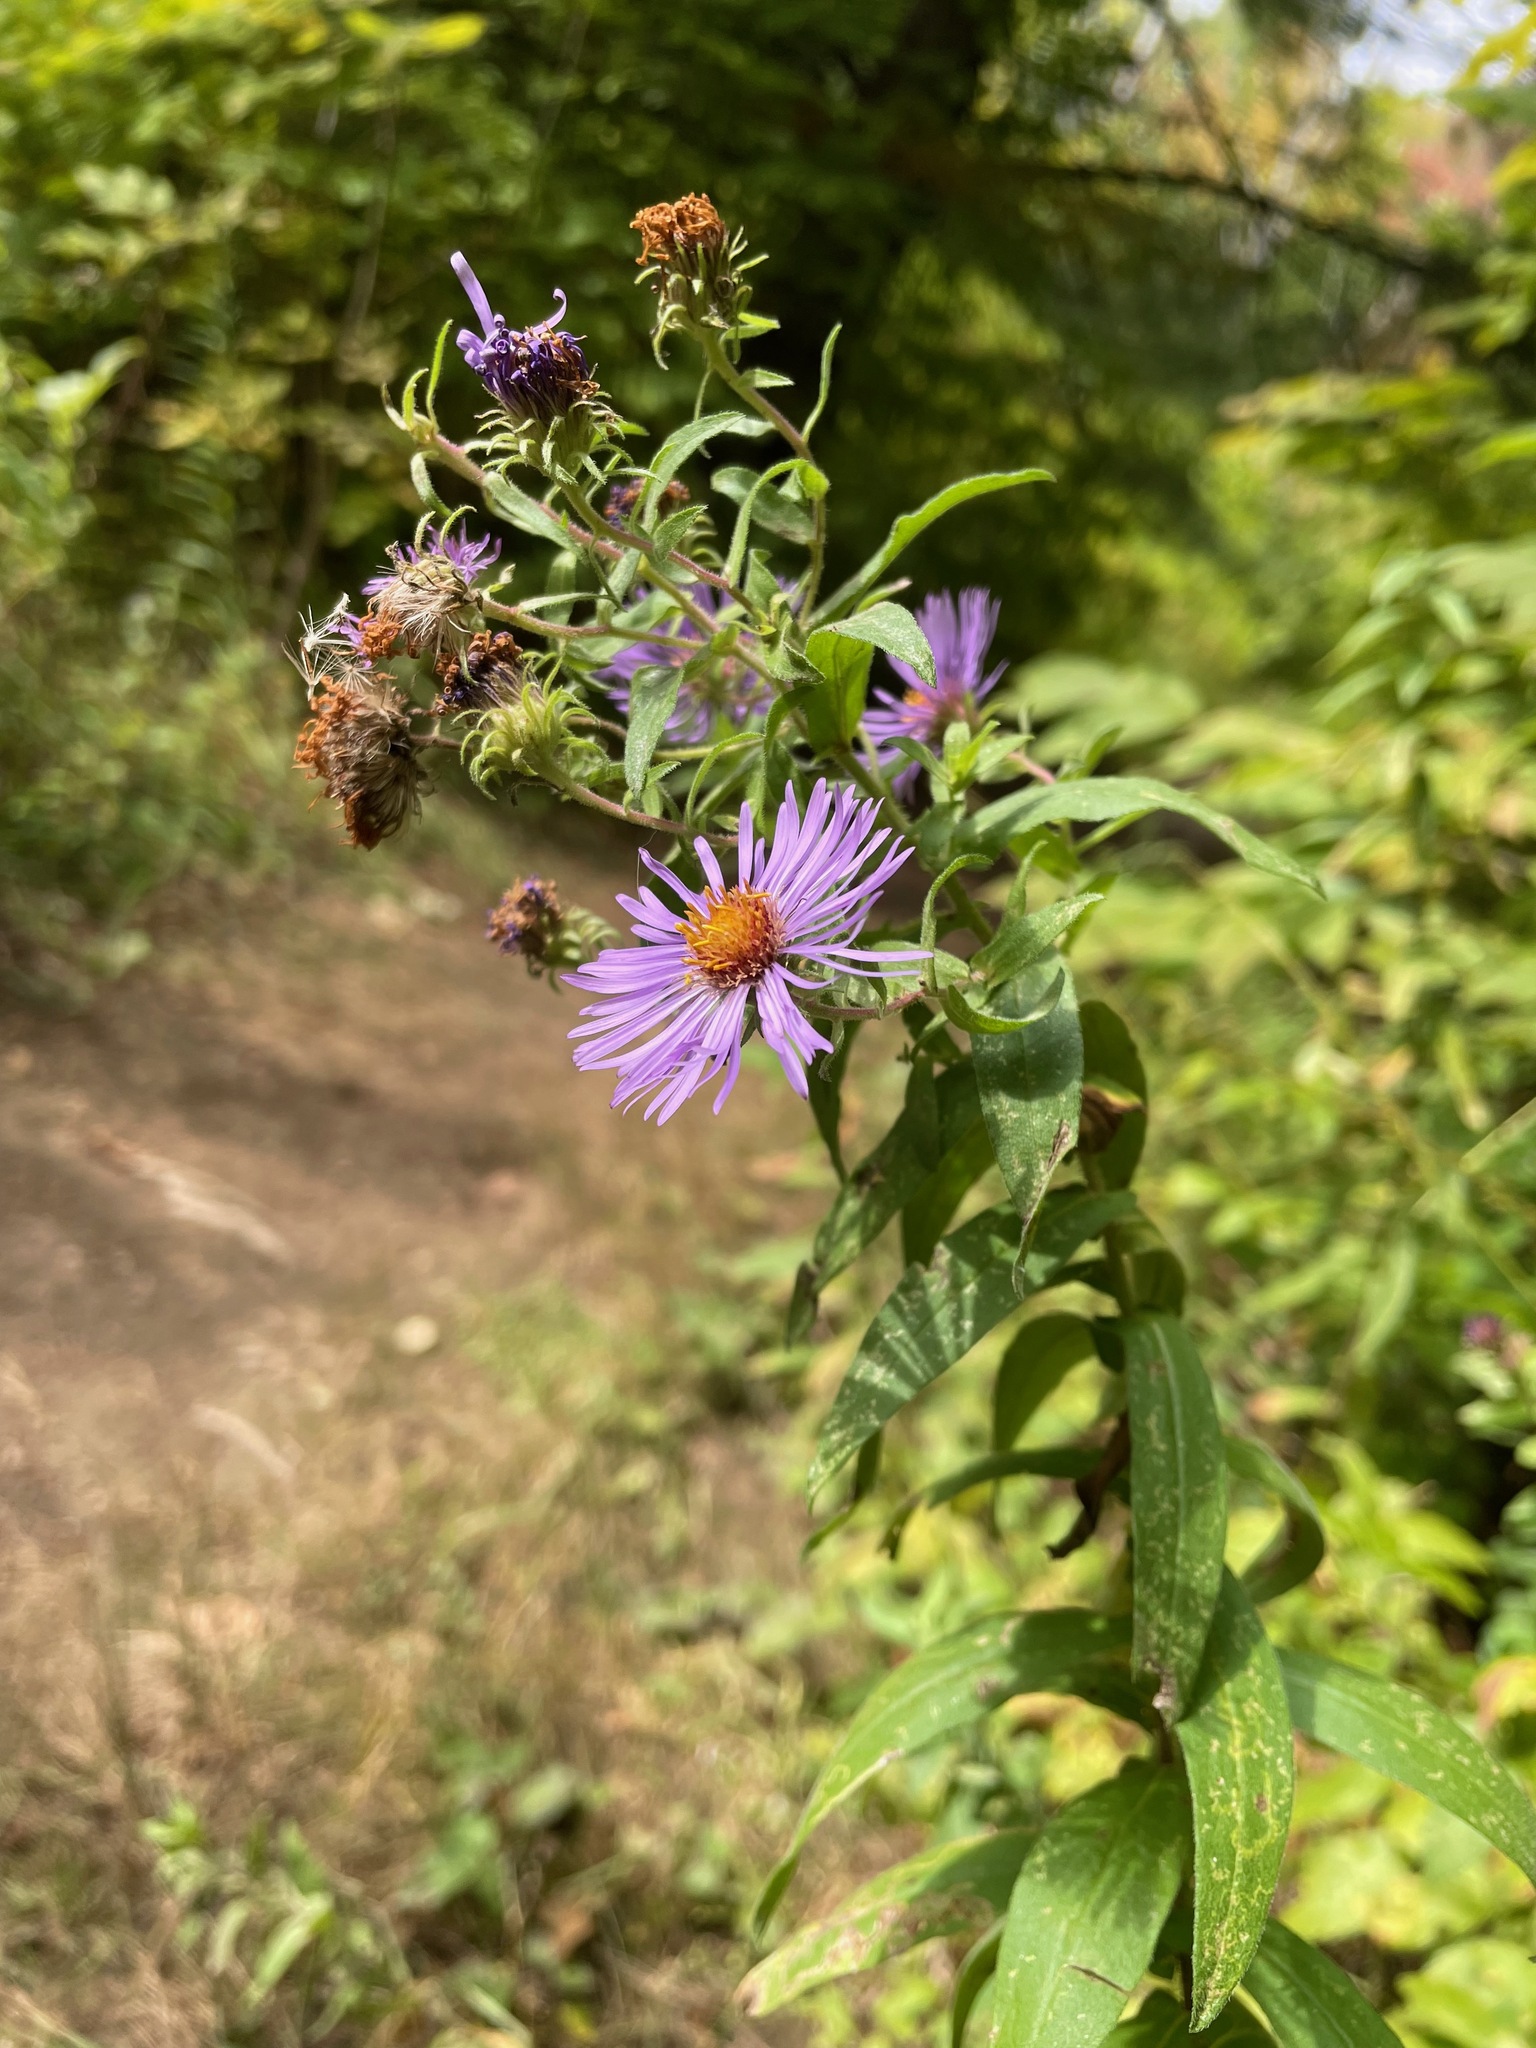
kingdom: Plantae
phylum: Tracheophyta
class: Magnoliopsida
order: Asterales
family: Asteraceae
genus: Symphyotrichum
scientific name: Symphyotrichum novae-angliae
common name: Michaelmas daisy
